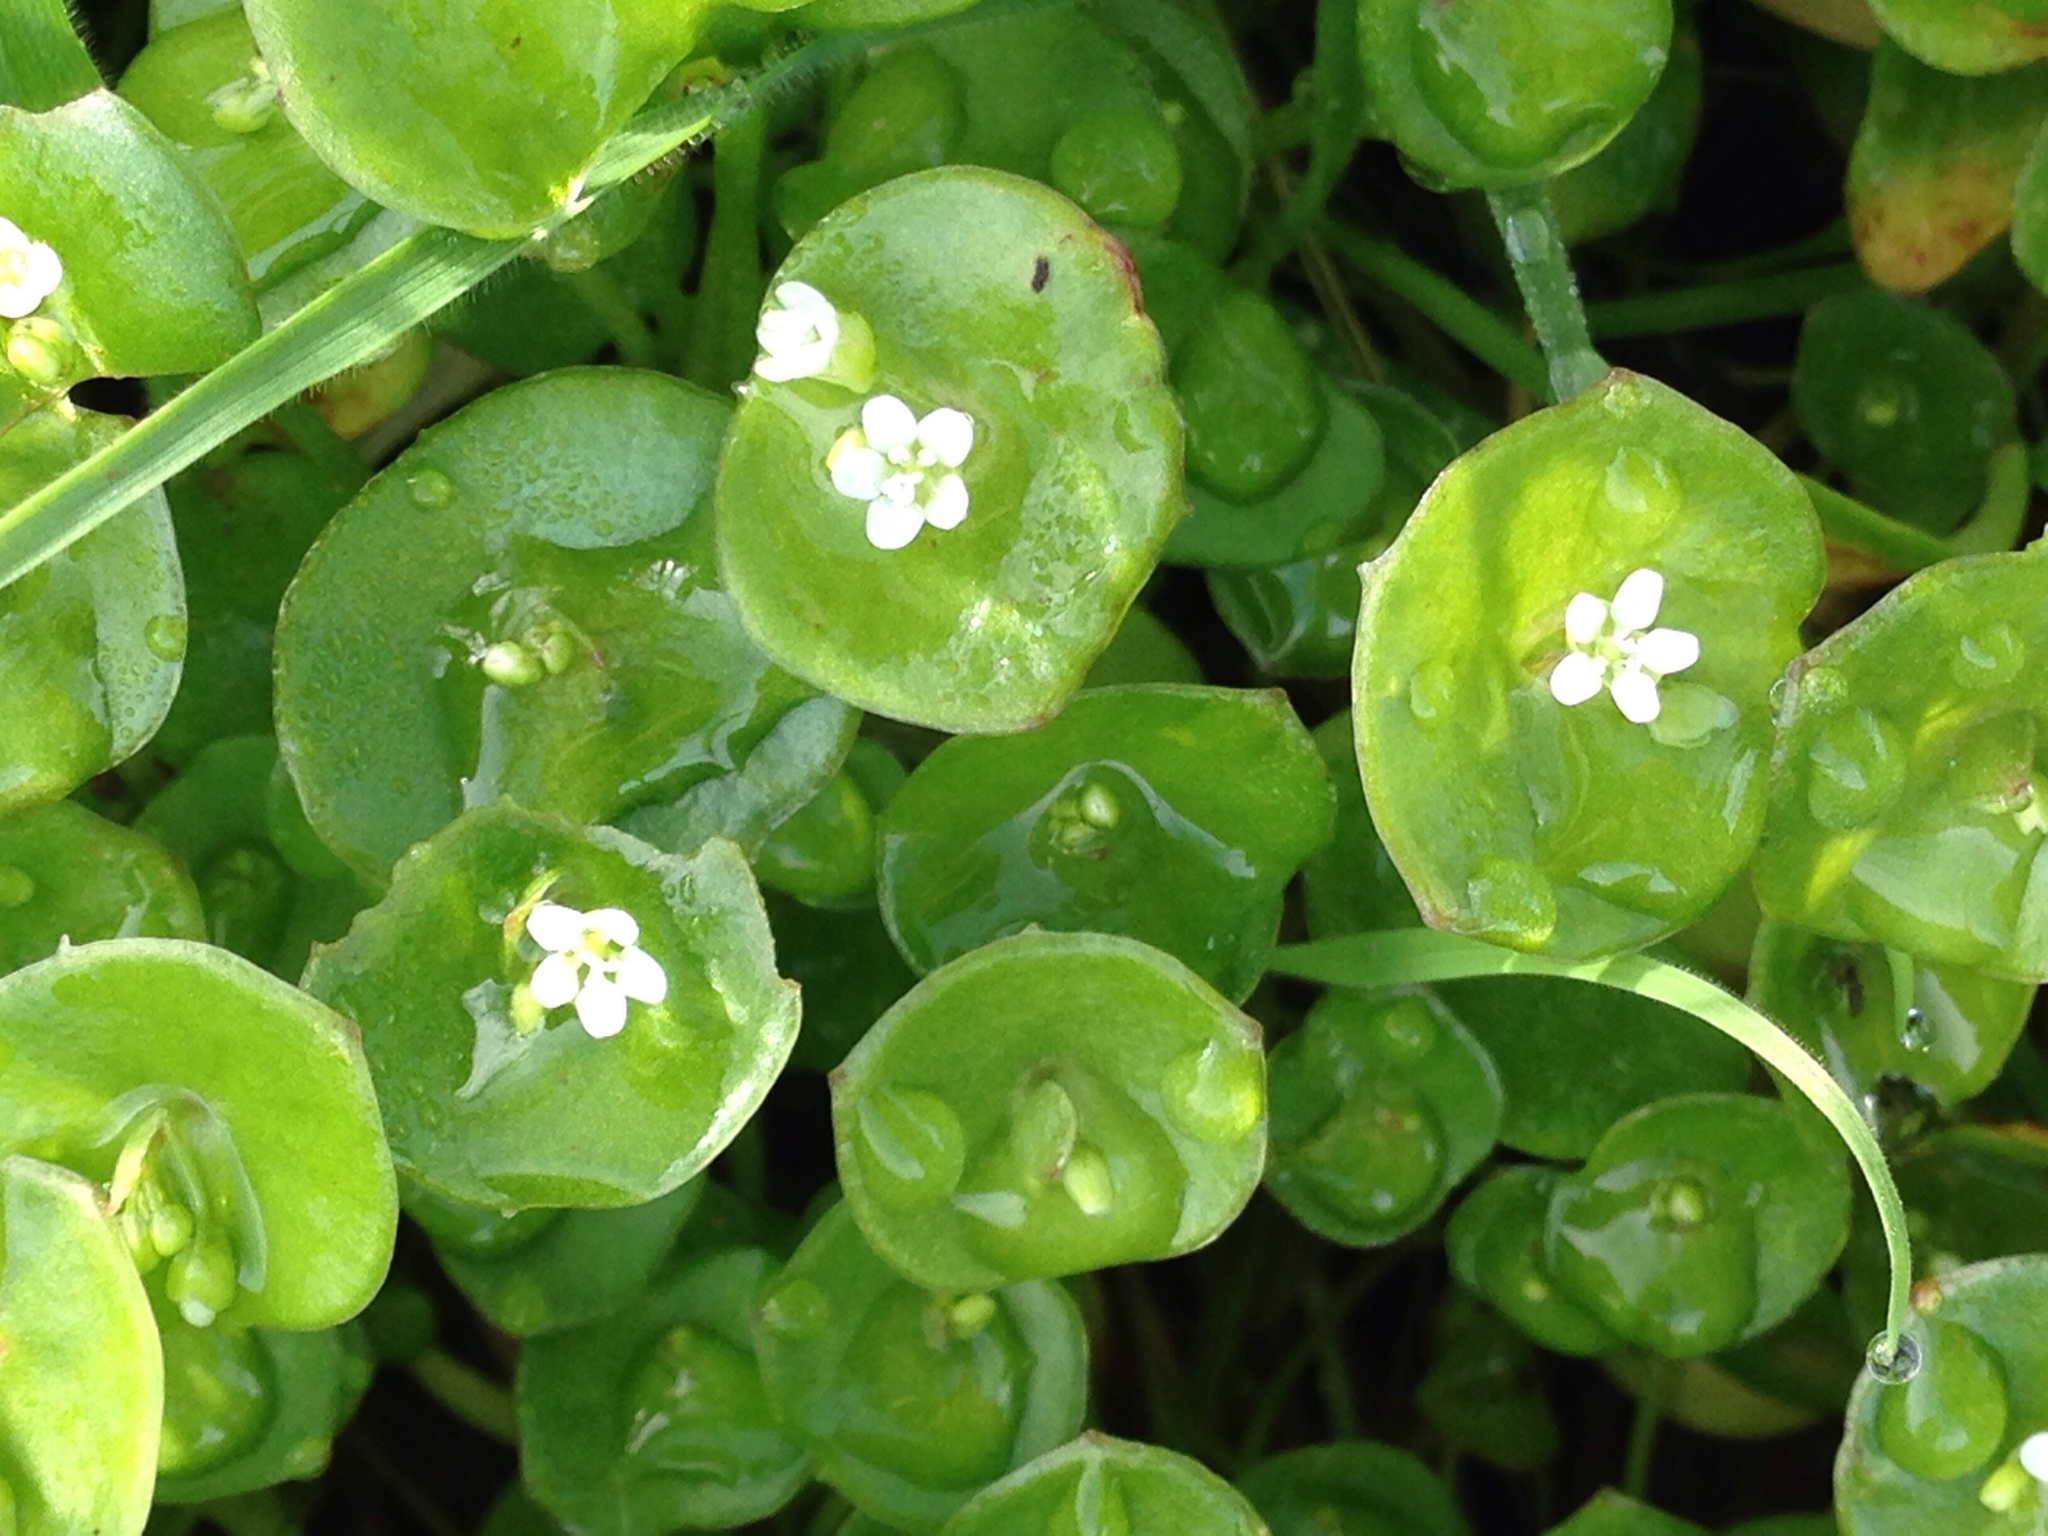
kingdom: Plantae
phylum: Tracheophyta
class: Magnoliopsida
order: Caryophyllales
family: Montiaceae
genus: Claytonia
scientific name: Claytonia perfoliata
